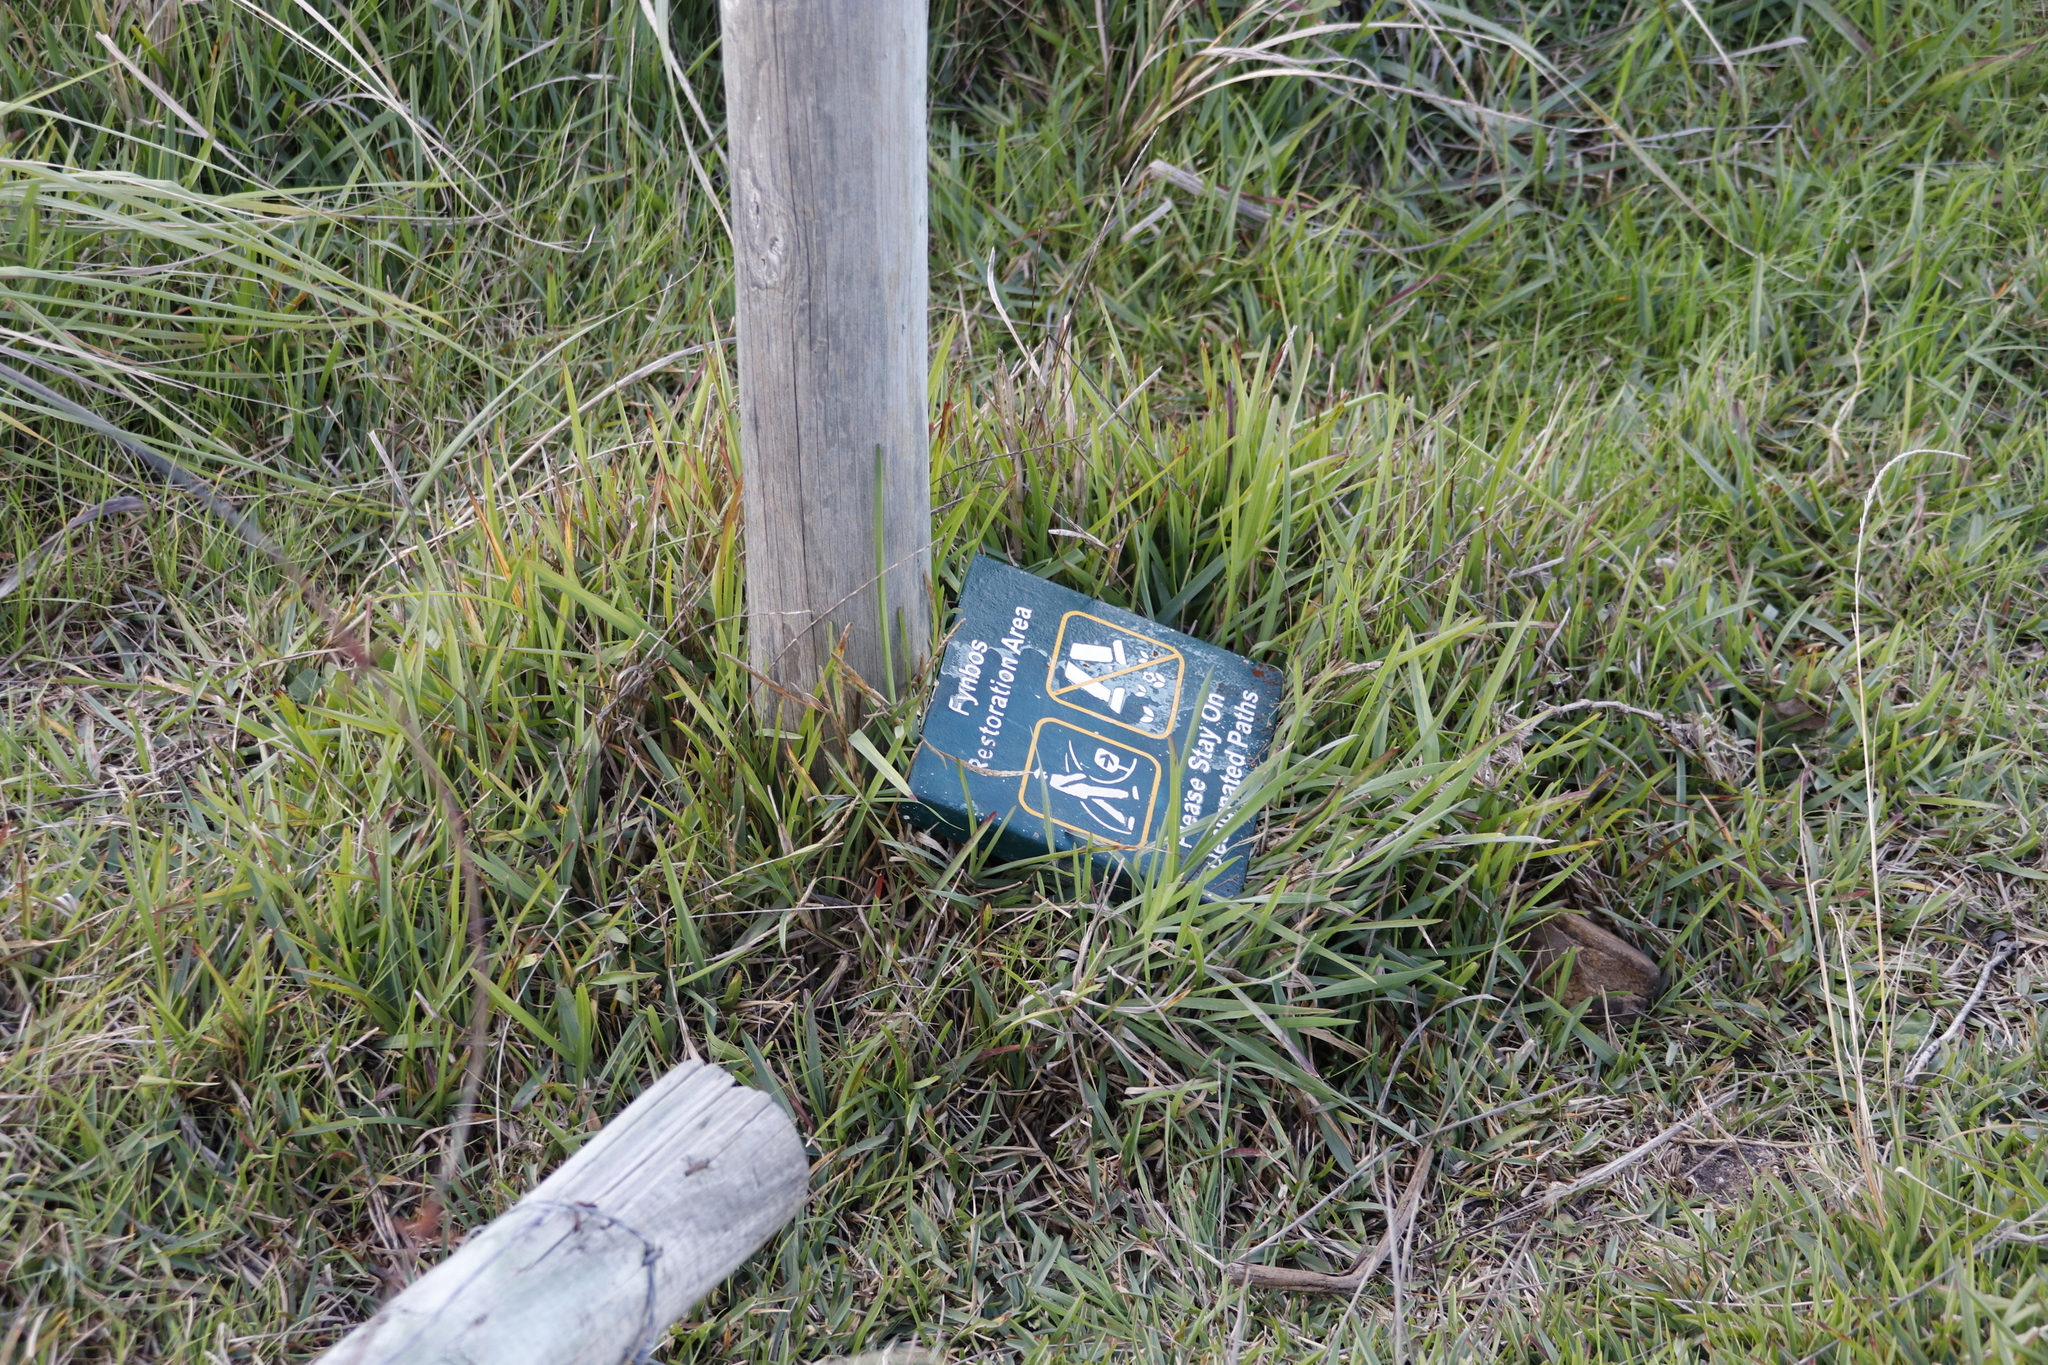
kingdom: Plantae
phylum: Tracheophyta
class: Liliopsida
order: Poales
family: Poaceae
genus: Stenotaphrum
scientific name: Stenotaphrum secundatum
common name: St. augustine grass
